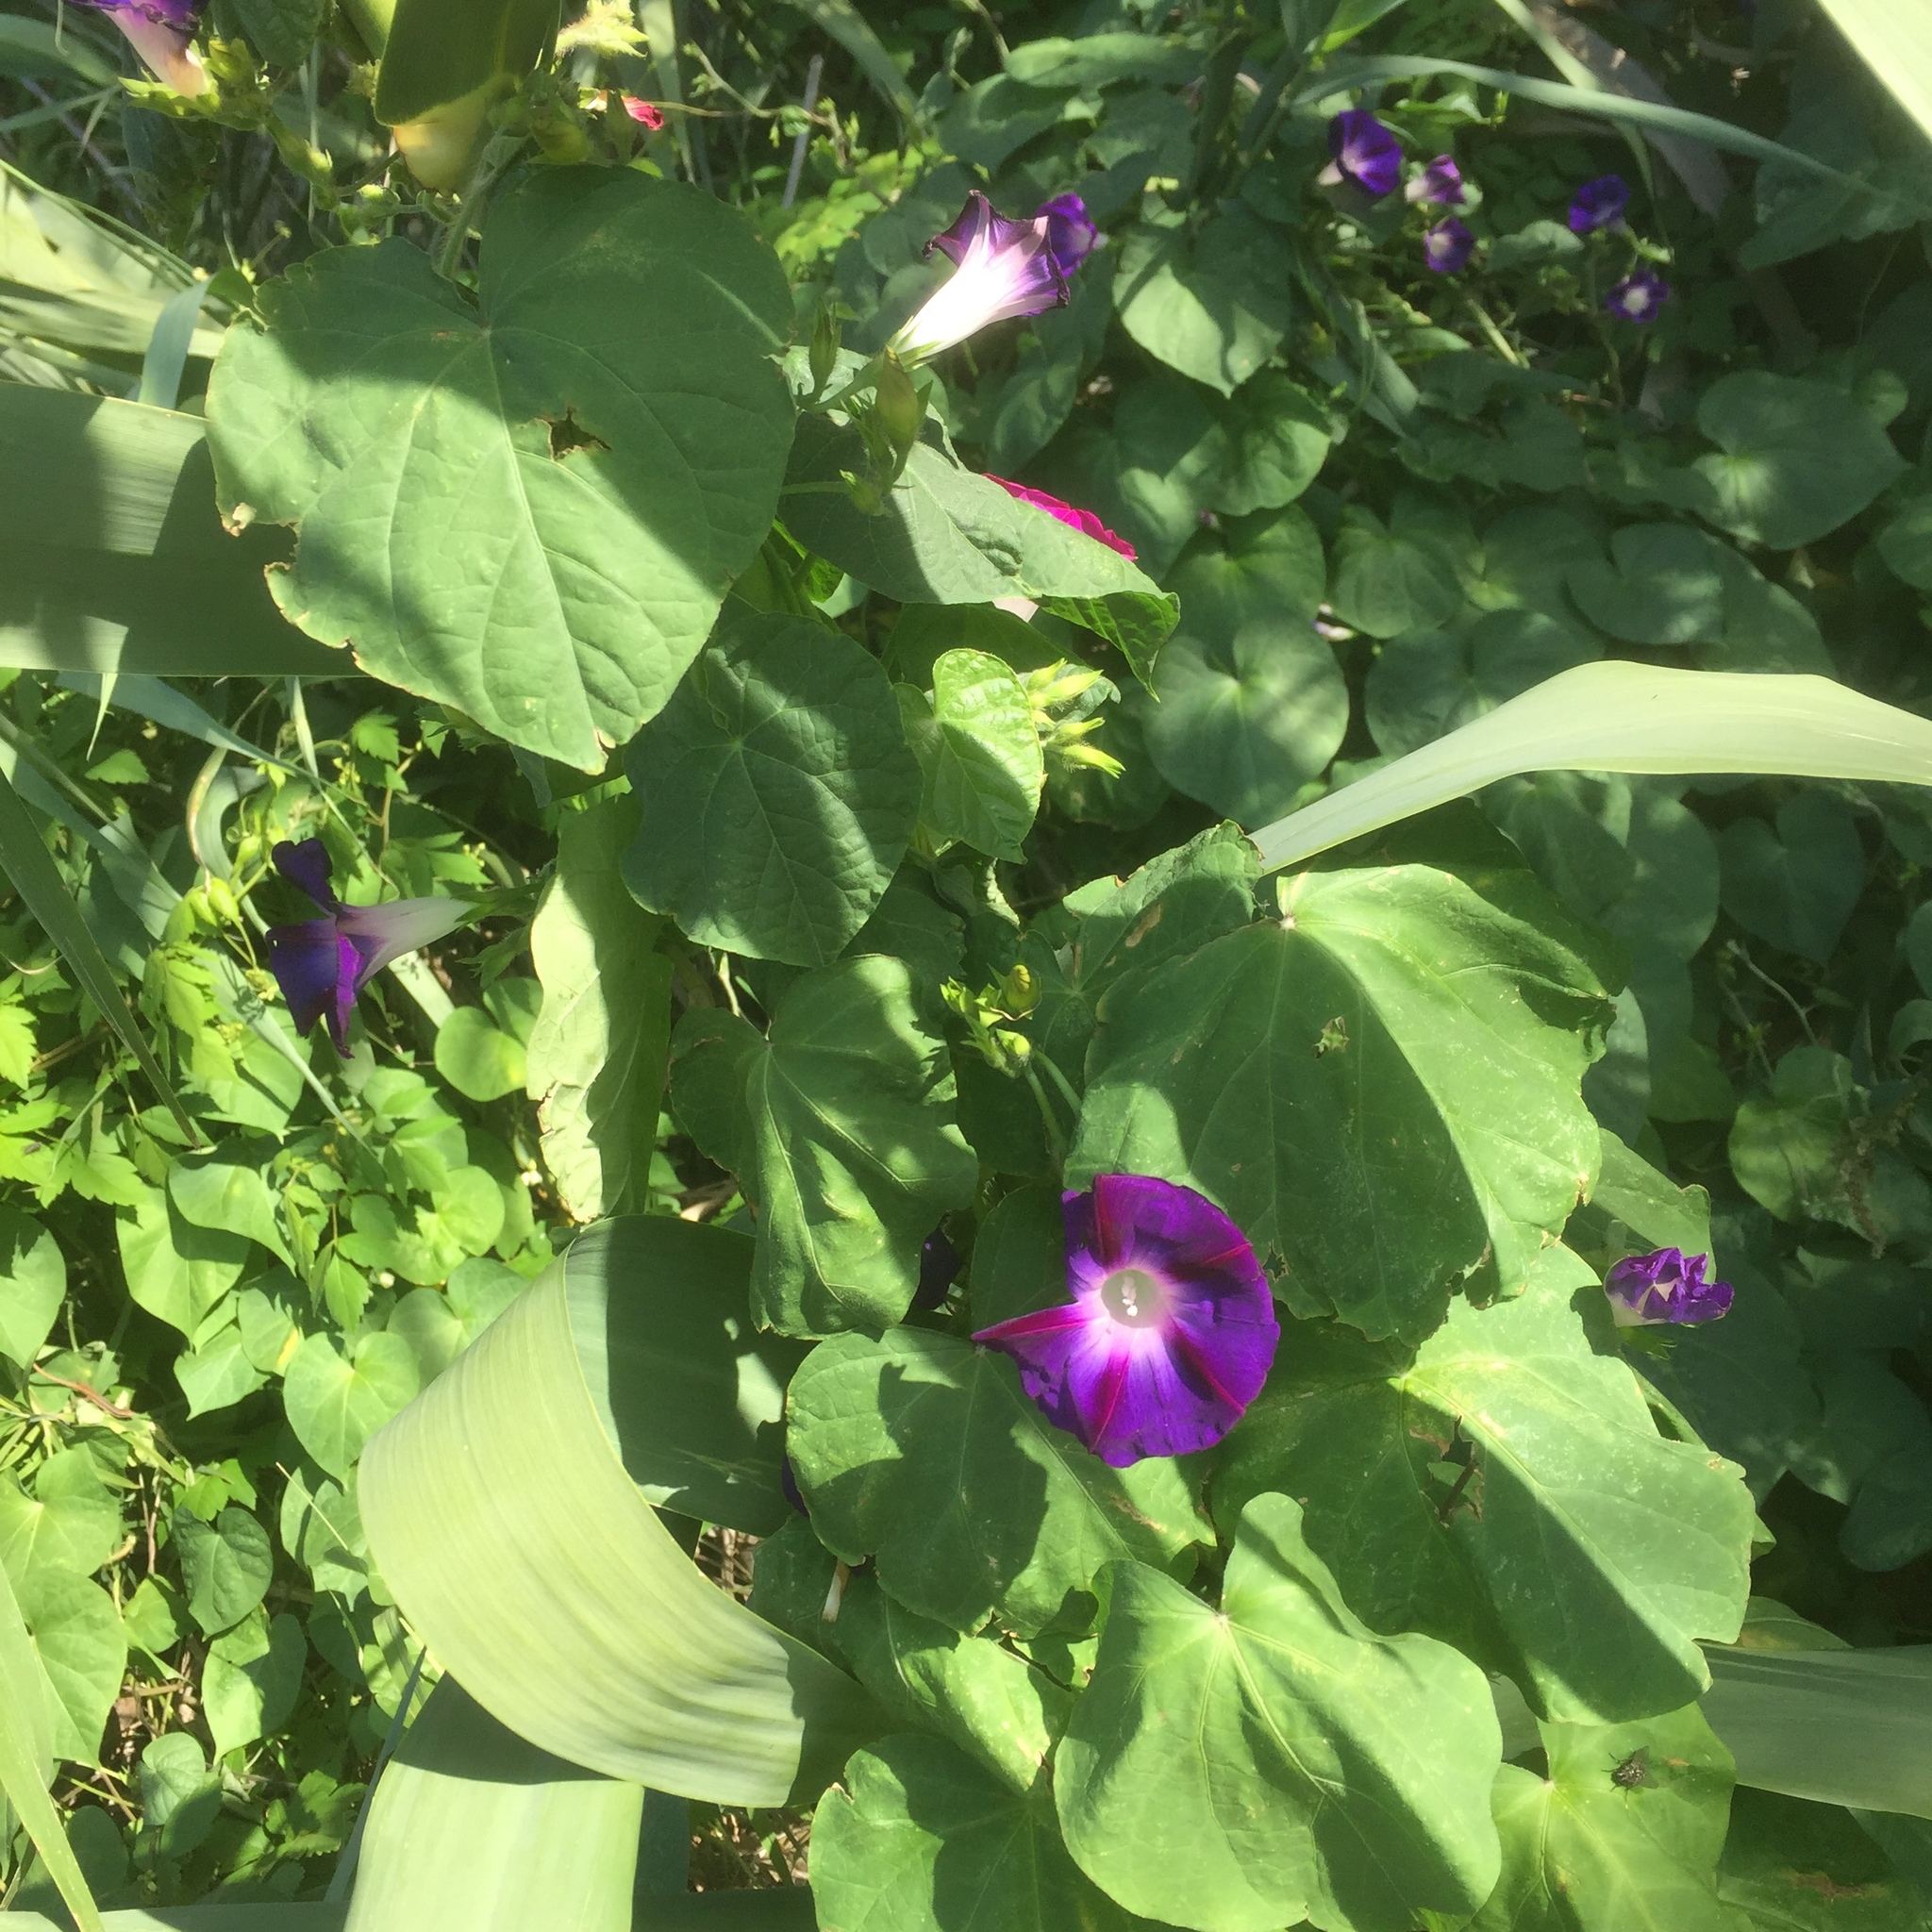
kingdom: Plantae
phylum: Tracheophyta
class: Magnoliopsida
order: Solanales
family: Convolvulaceae
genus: Ipomoea
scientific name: Ipomoea purpurea
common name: Common morning-glory
